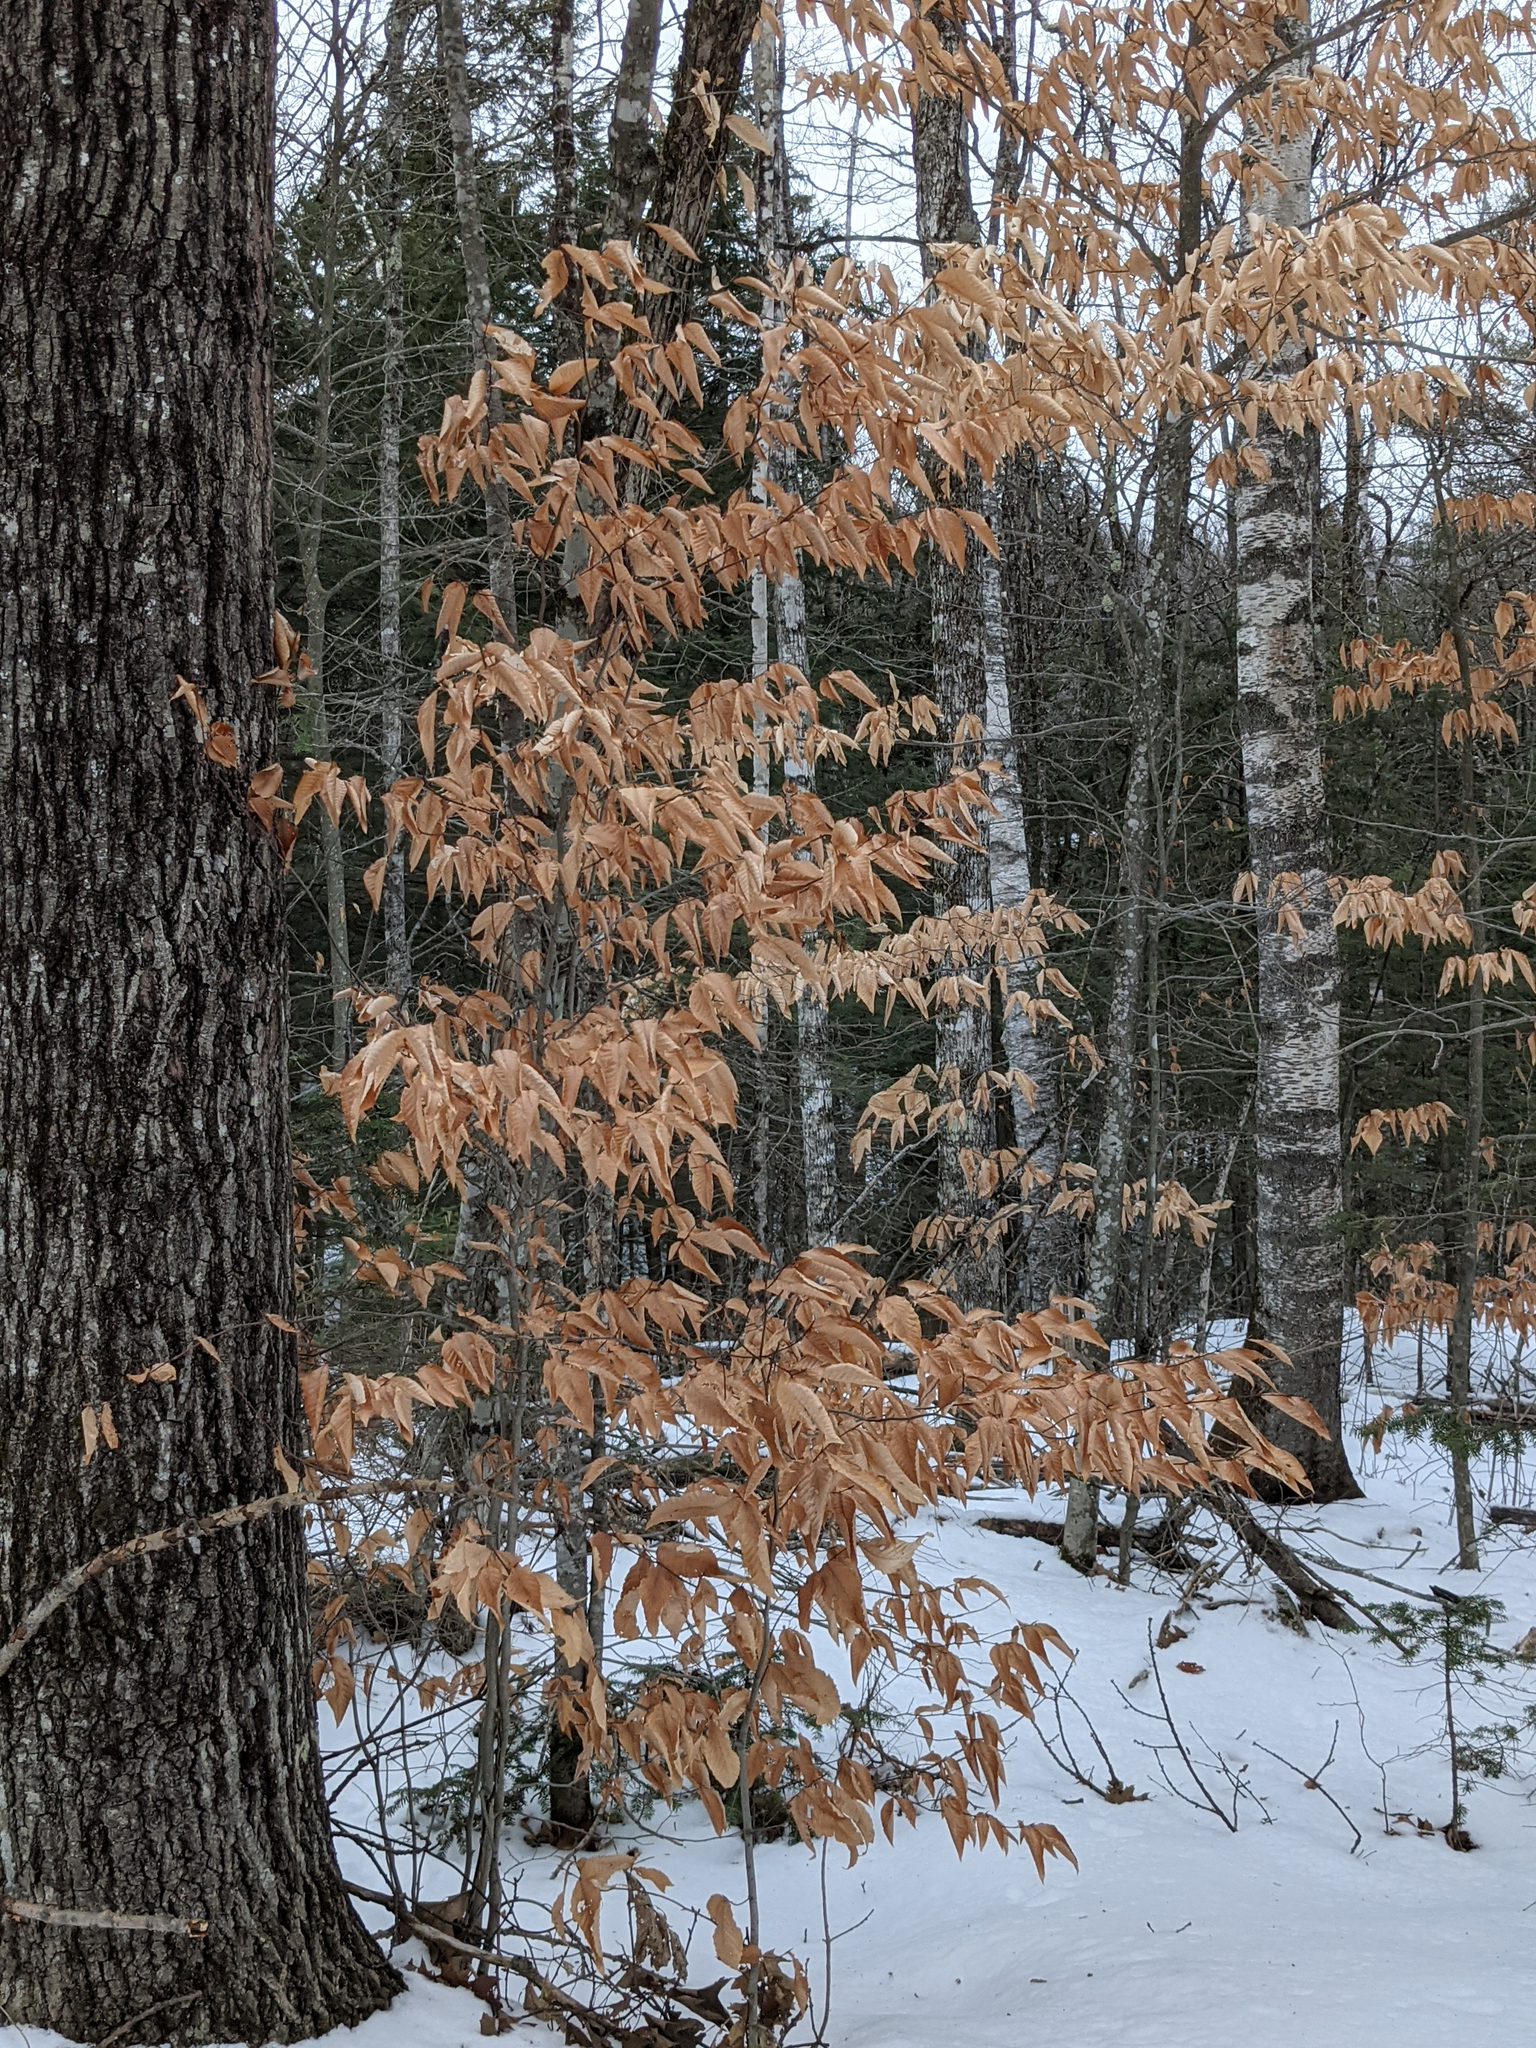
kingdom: Plantae
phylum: Tracheophyta
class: Magnoliopsida
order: Fagales
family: Fagaceae
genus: Fagus
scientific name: Fagus grandifolia
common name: American beech
